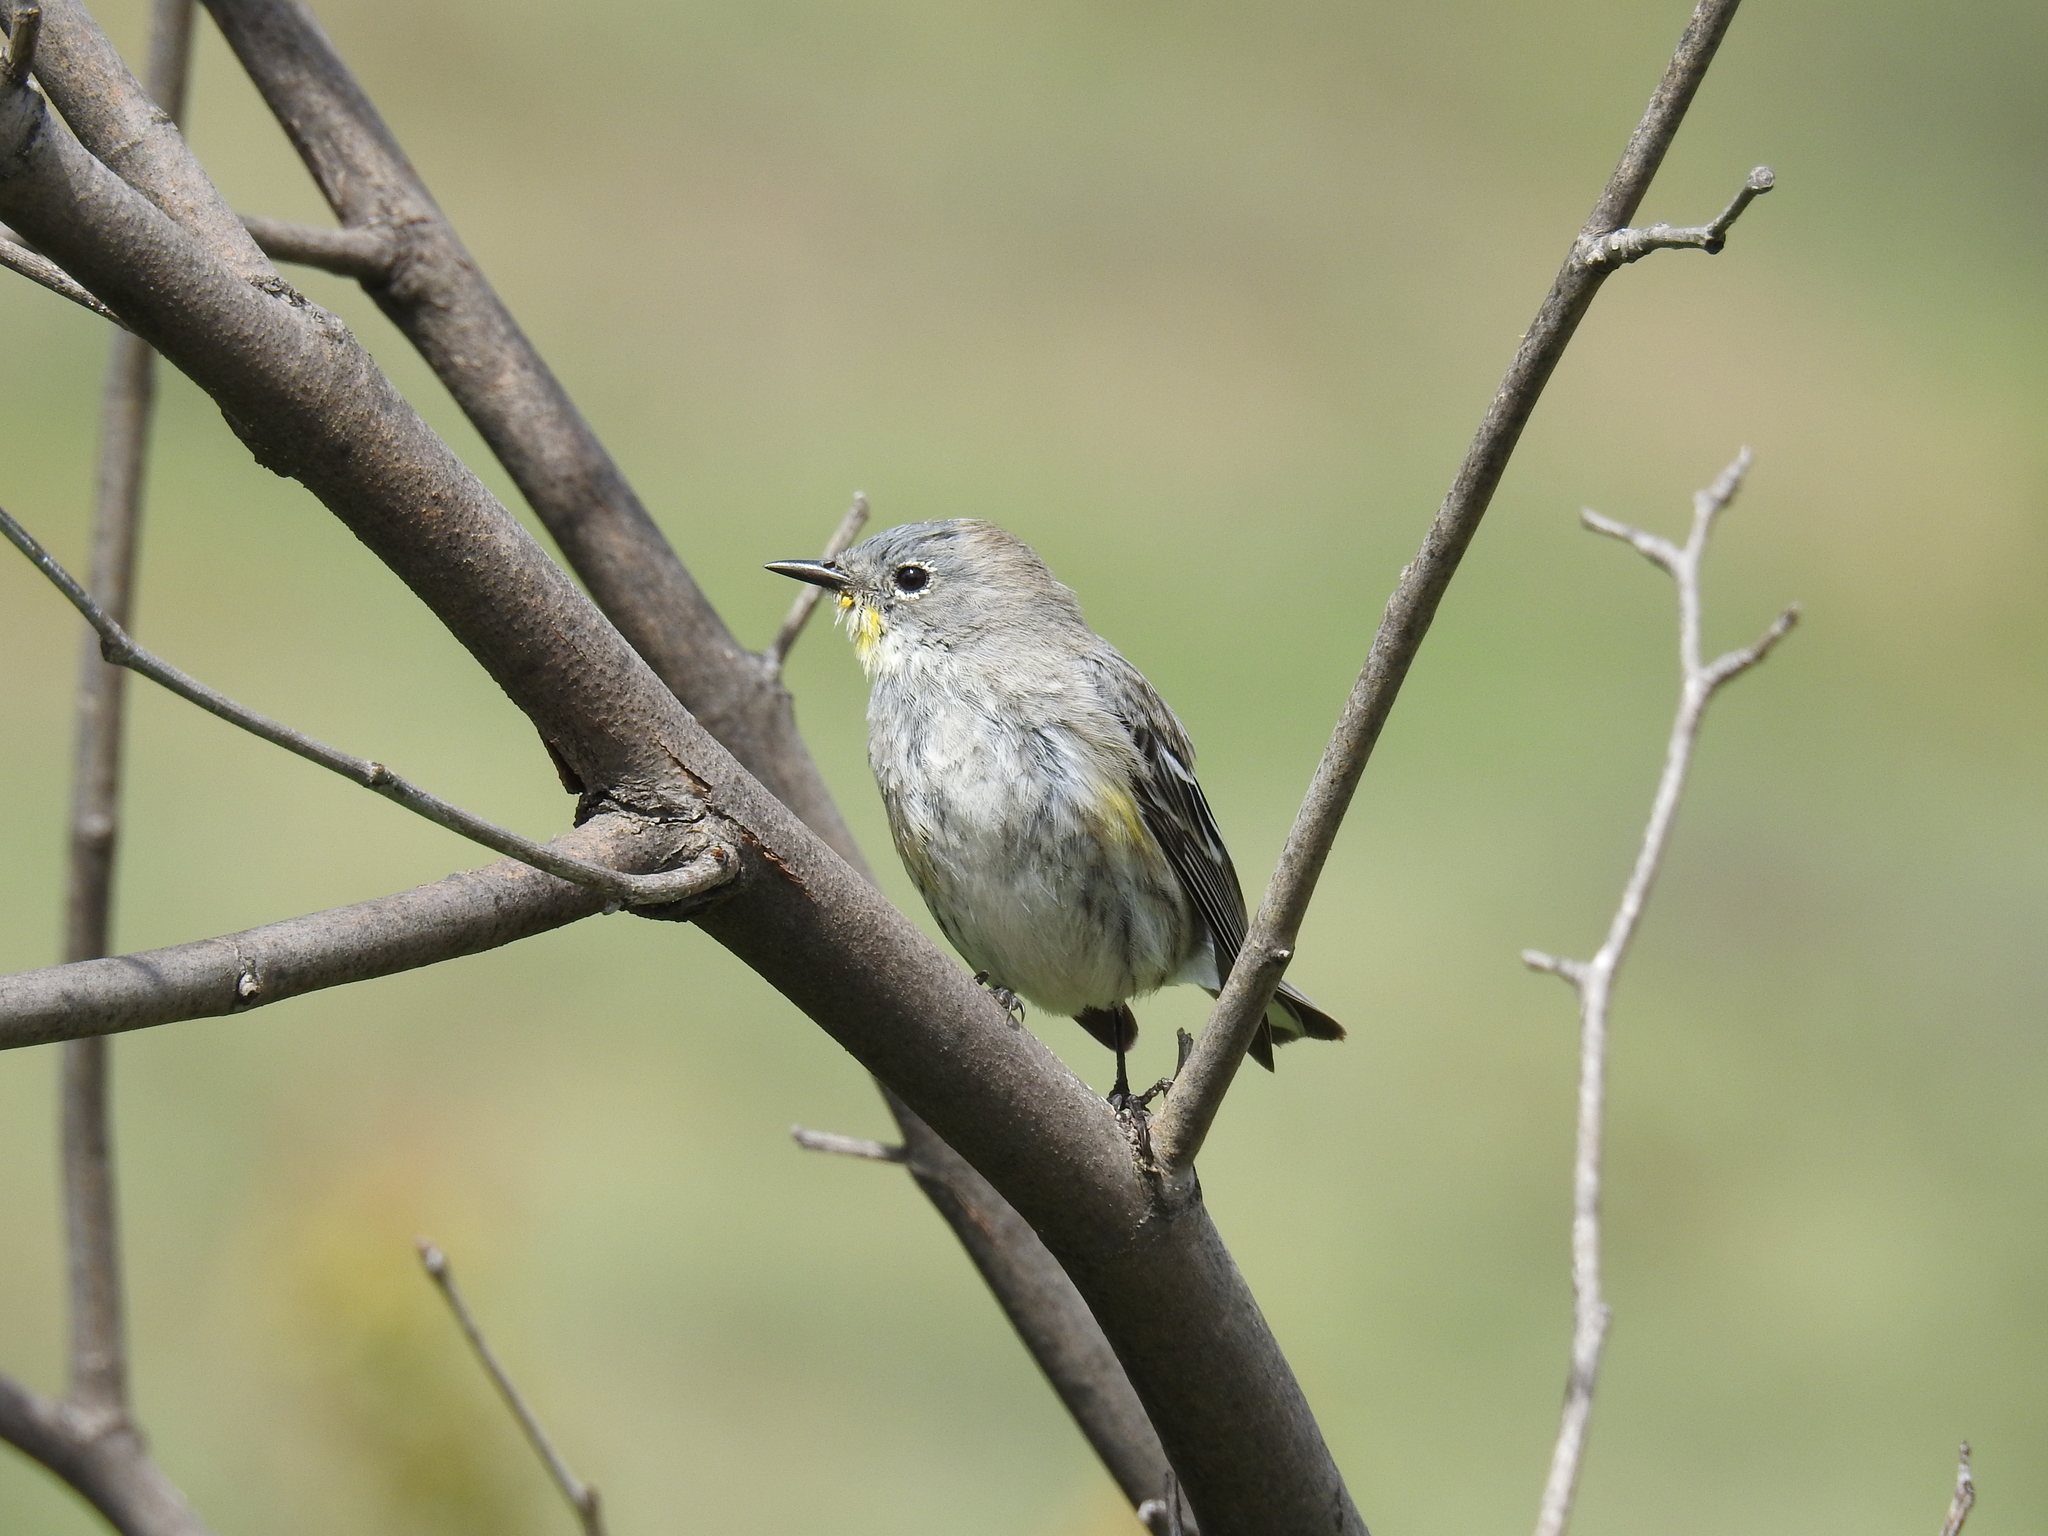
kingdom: Animalia
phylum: Chordata
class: Aves
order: Passeriformes
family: Parulidae
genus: Setophaga
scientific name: Setophaga coronata
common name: Myrtle warbler
